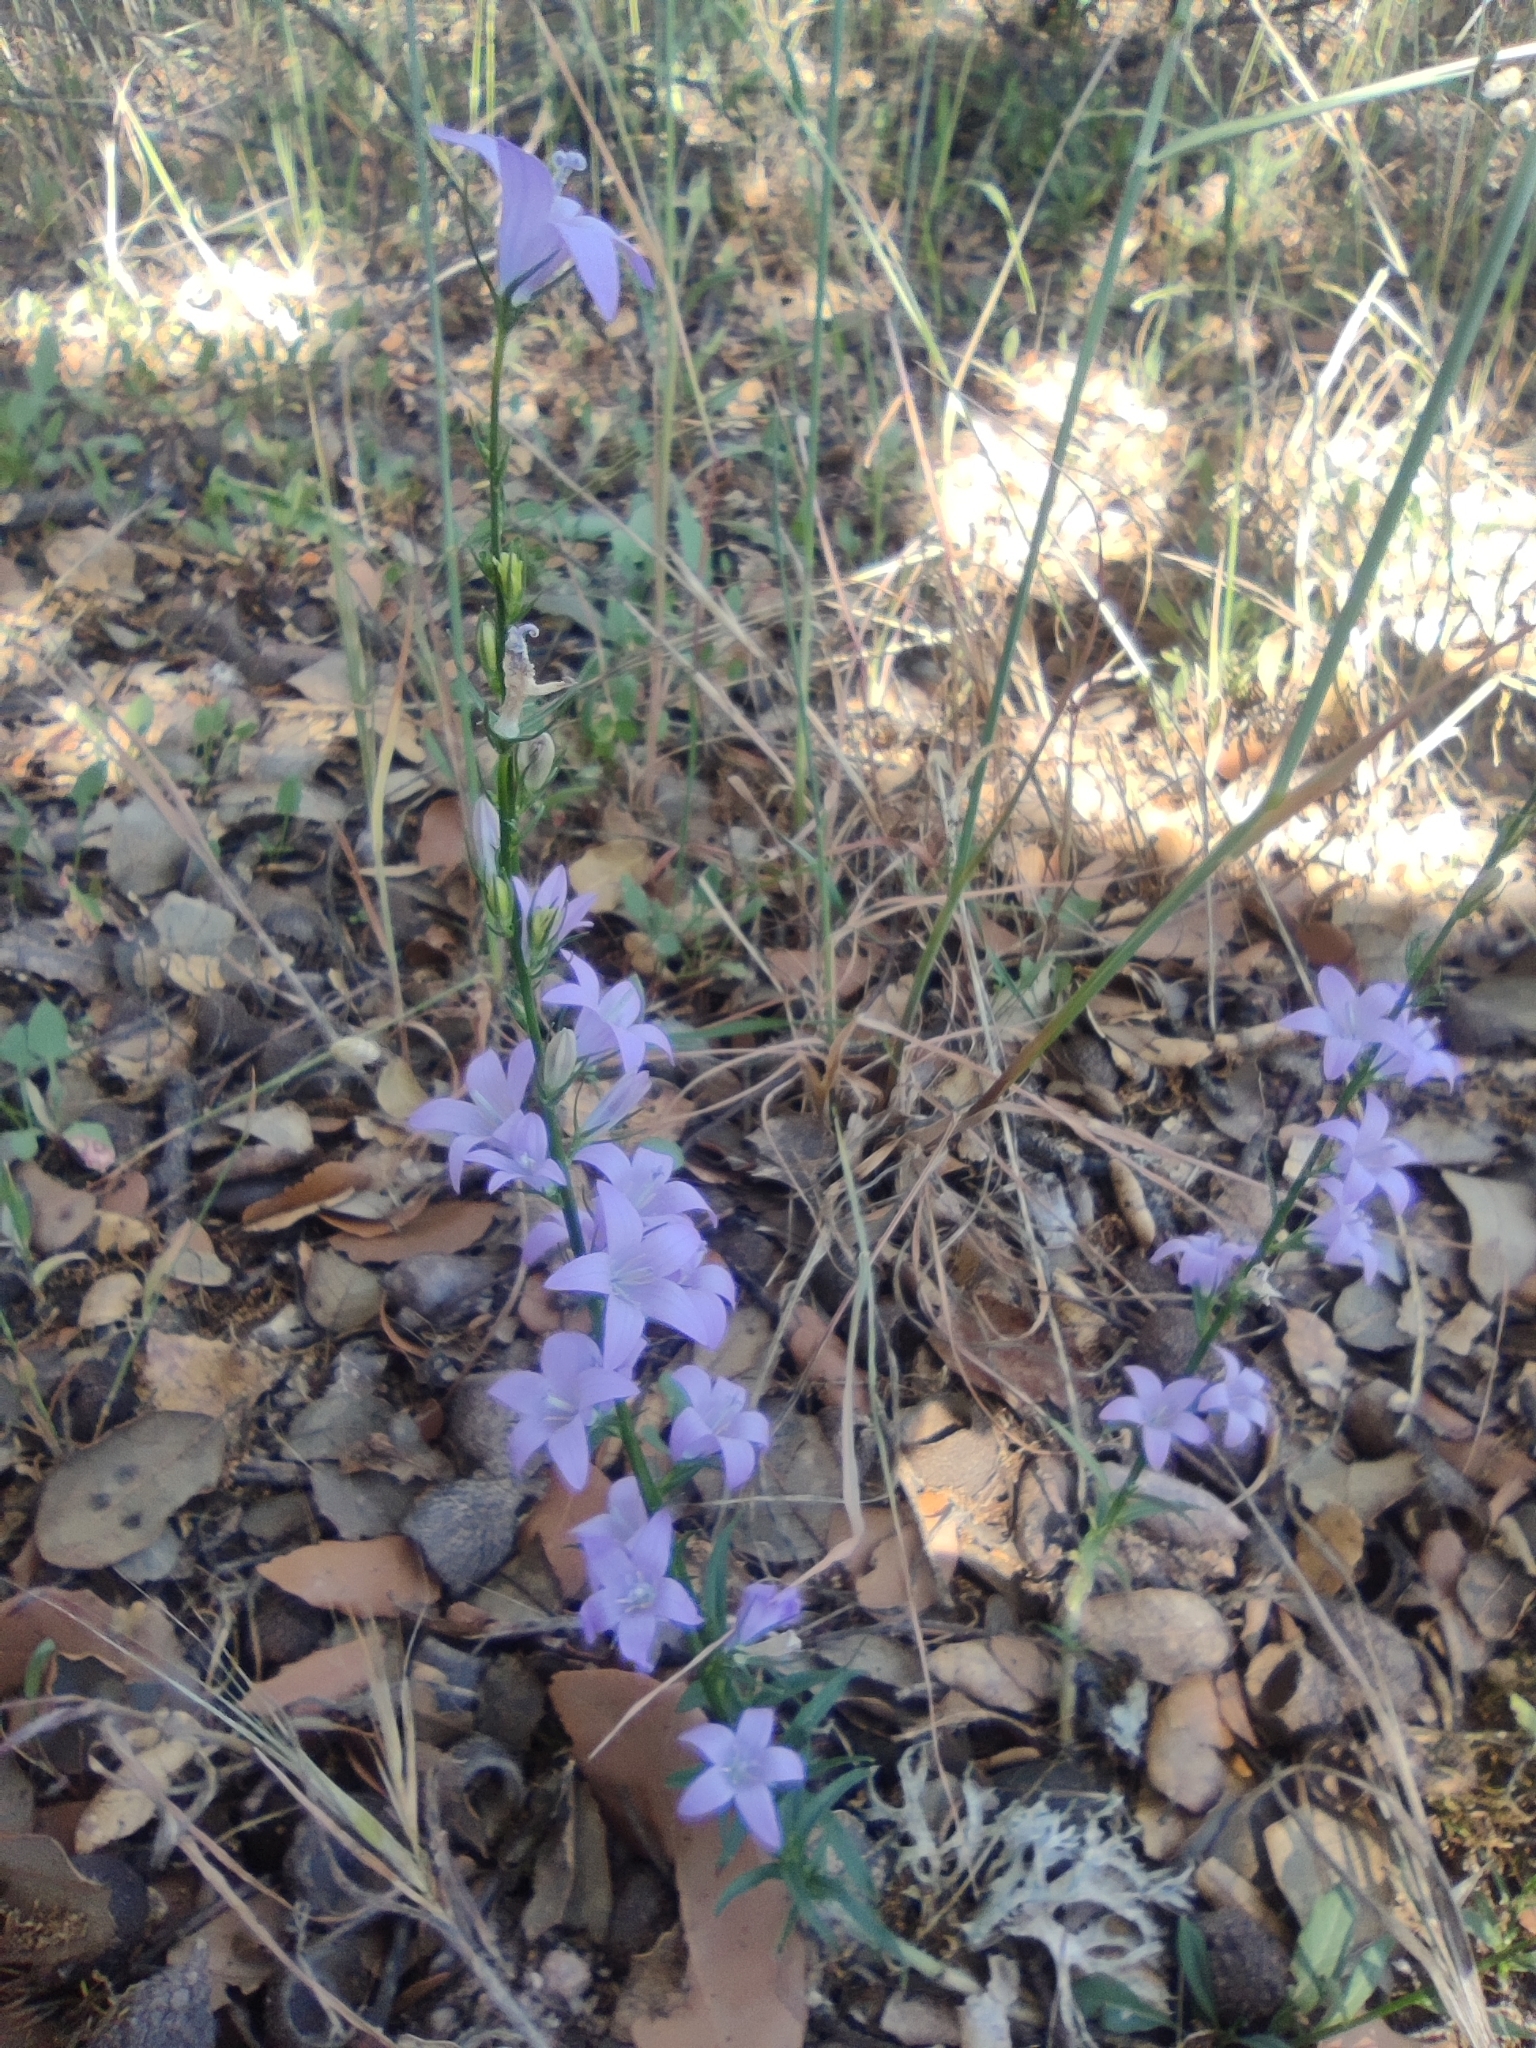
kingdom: Plantae
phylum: Tracheophyta
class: Magnoliopsida
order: Asterales
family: Campanulaceae
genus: Campanula
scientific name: Campanula rapunculus
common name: Rampion bellflower
